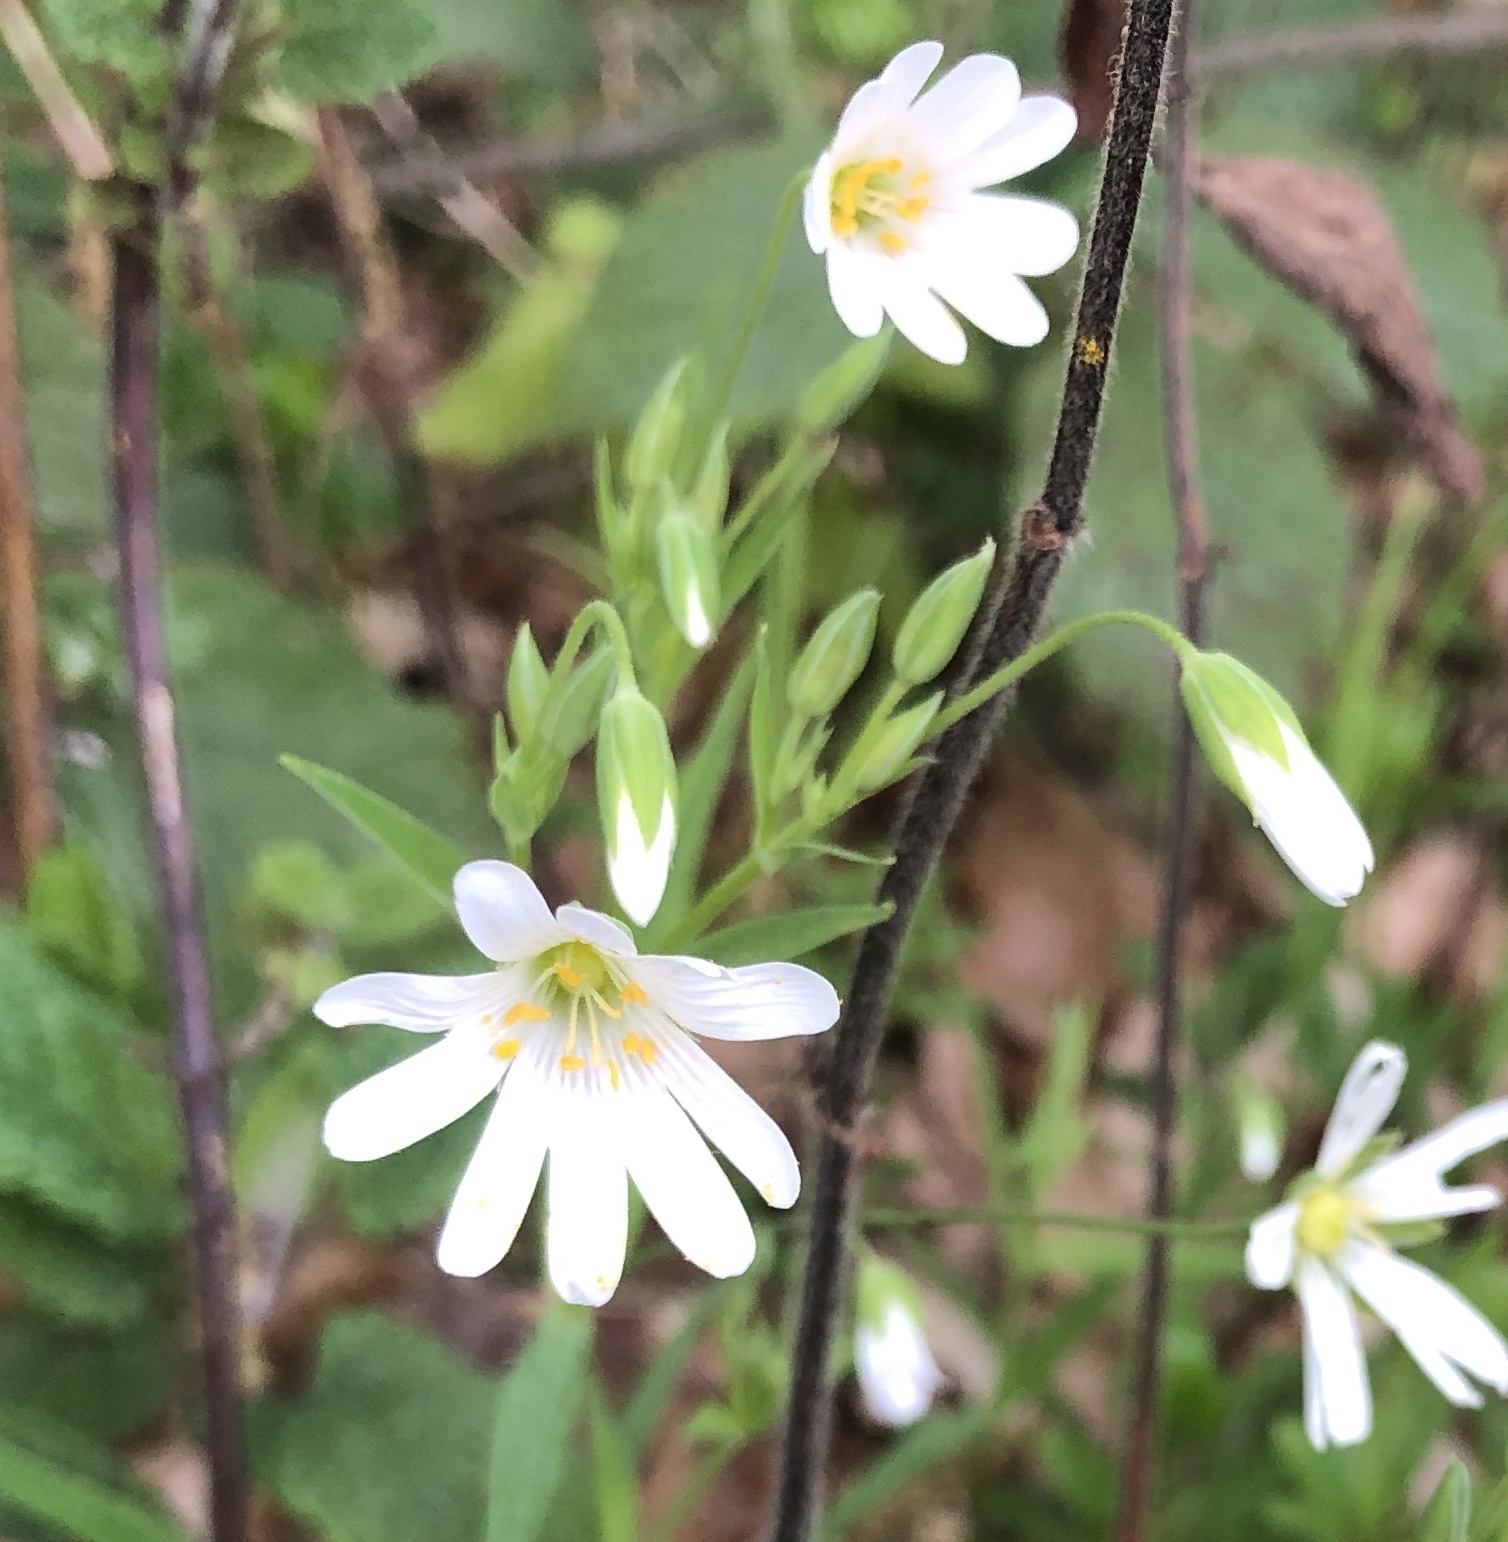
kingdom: Plantae
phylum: Tracheophyta
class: Magnoliopsida
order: Caryophyllales
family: Caryophyllaceae
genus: Rabelera
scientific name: Rabelera holostea
